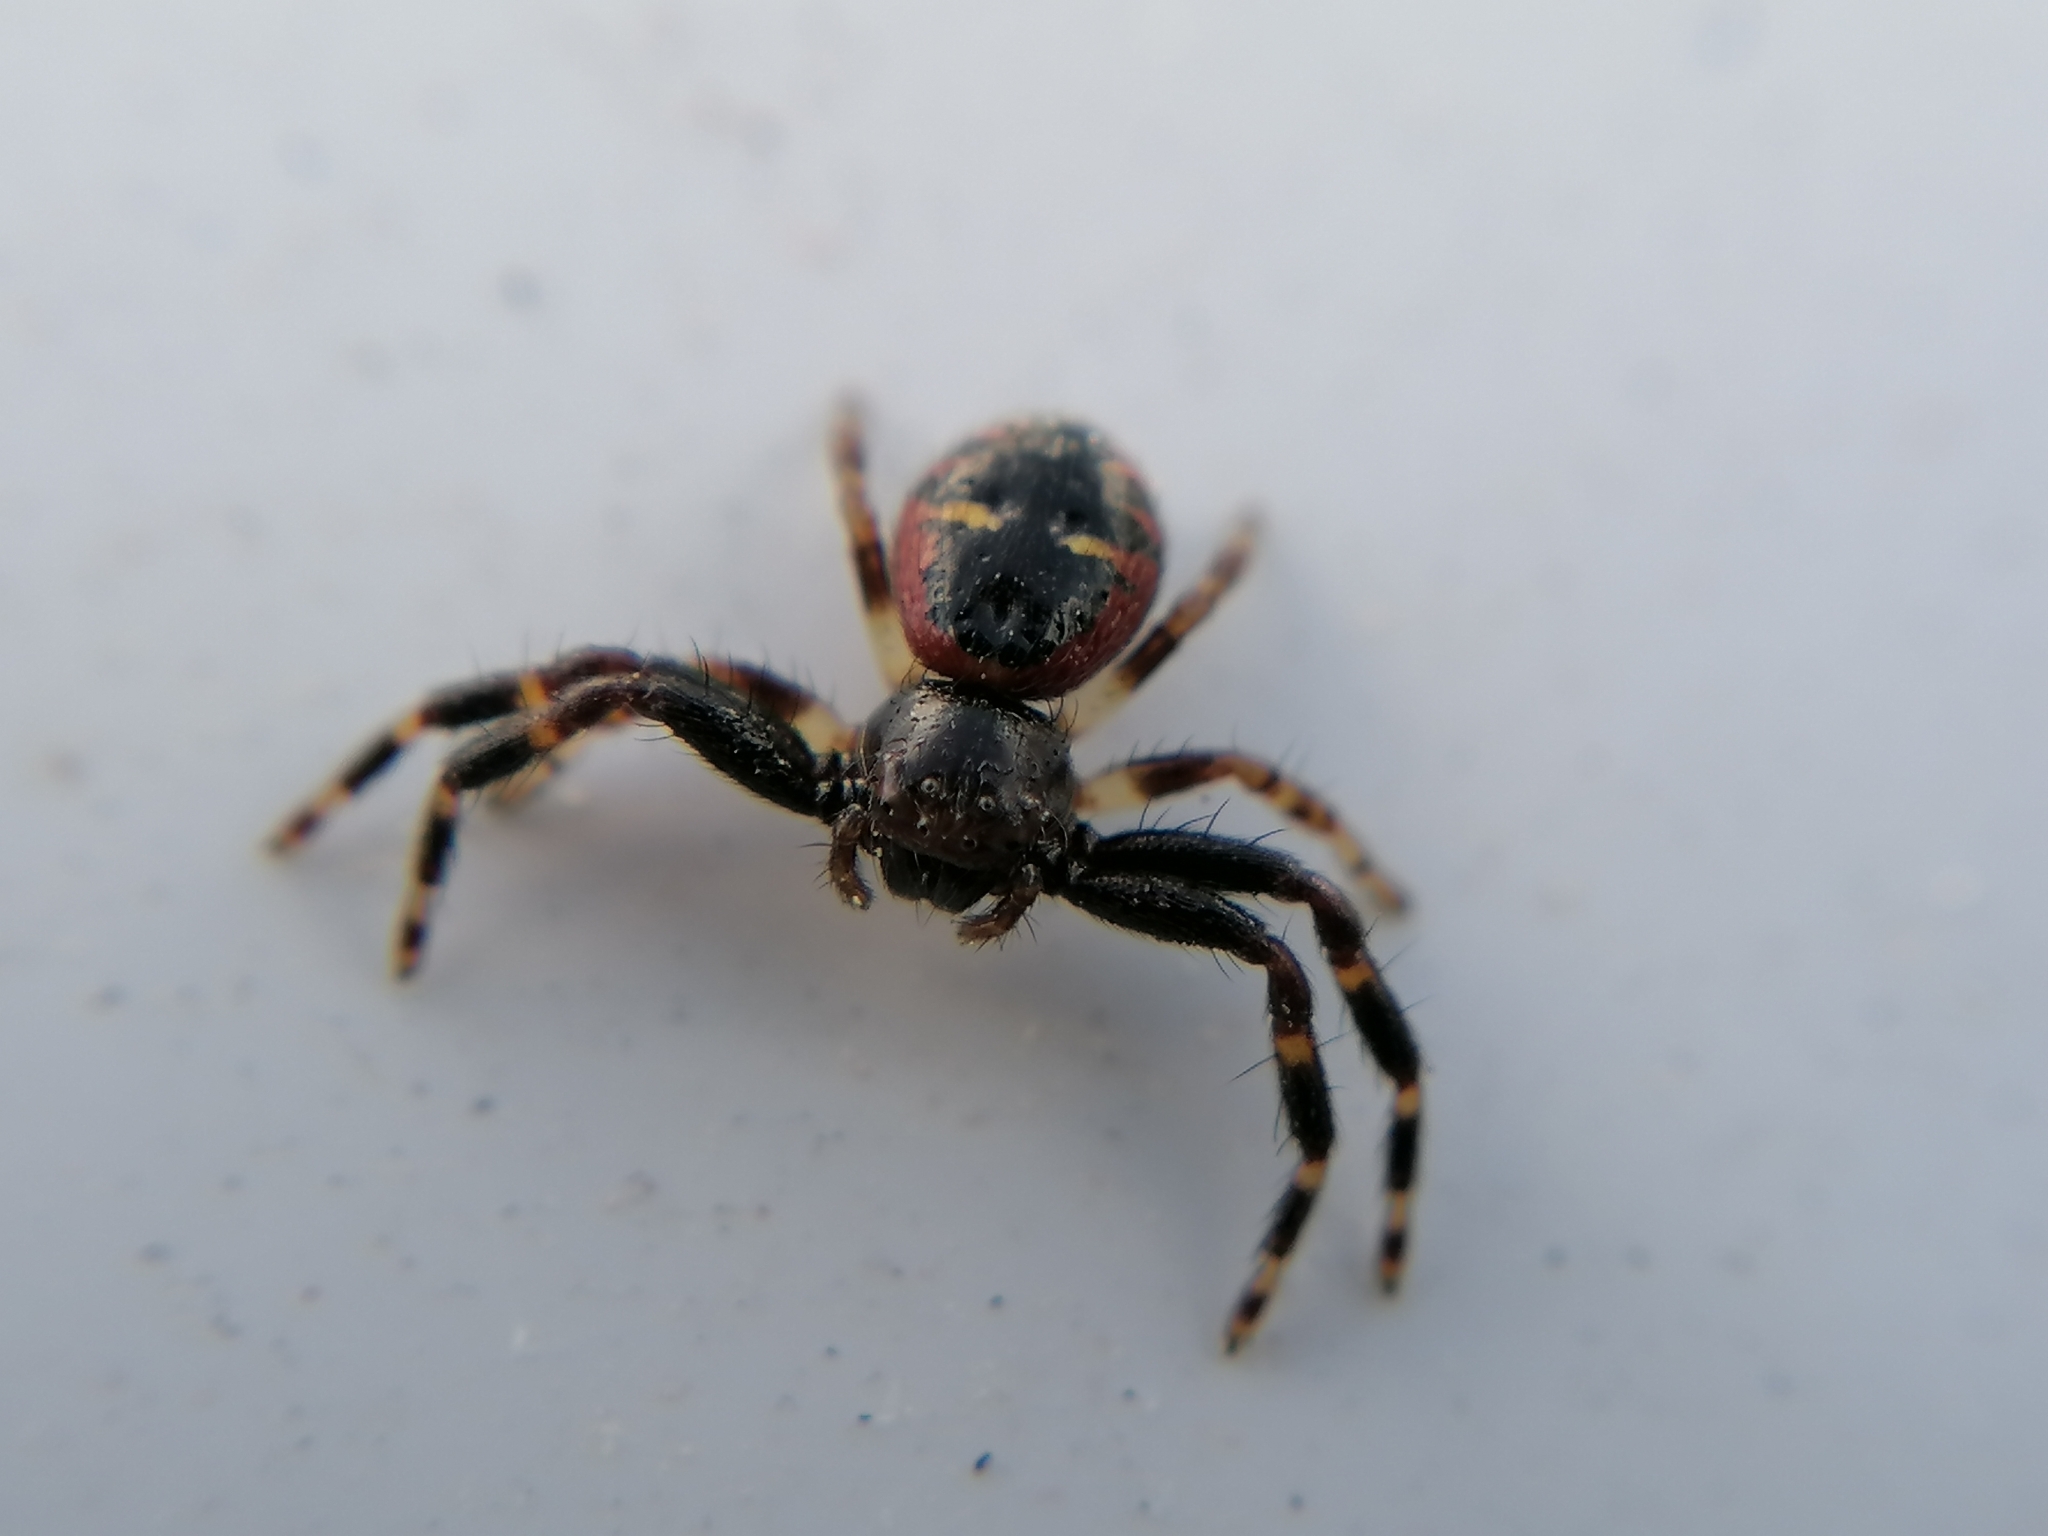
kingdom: Animalia
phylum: Arthropoda
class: Arachnida
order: Araneae
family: Thomisidae
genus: Synema
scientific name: Synema globosum
